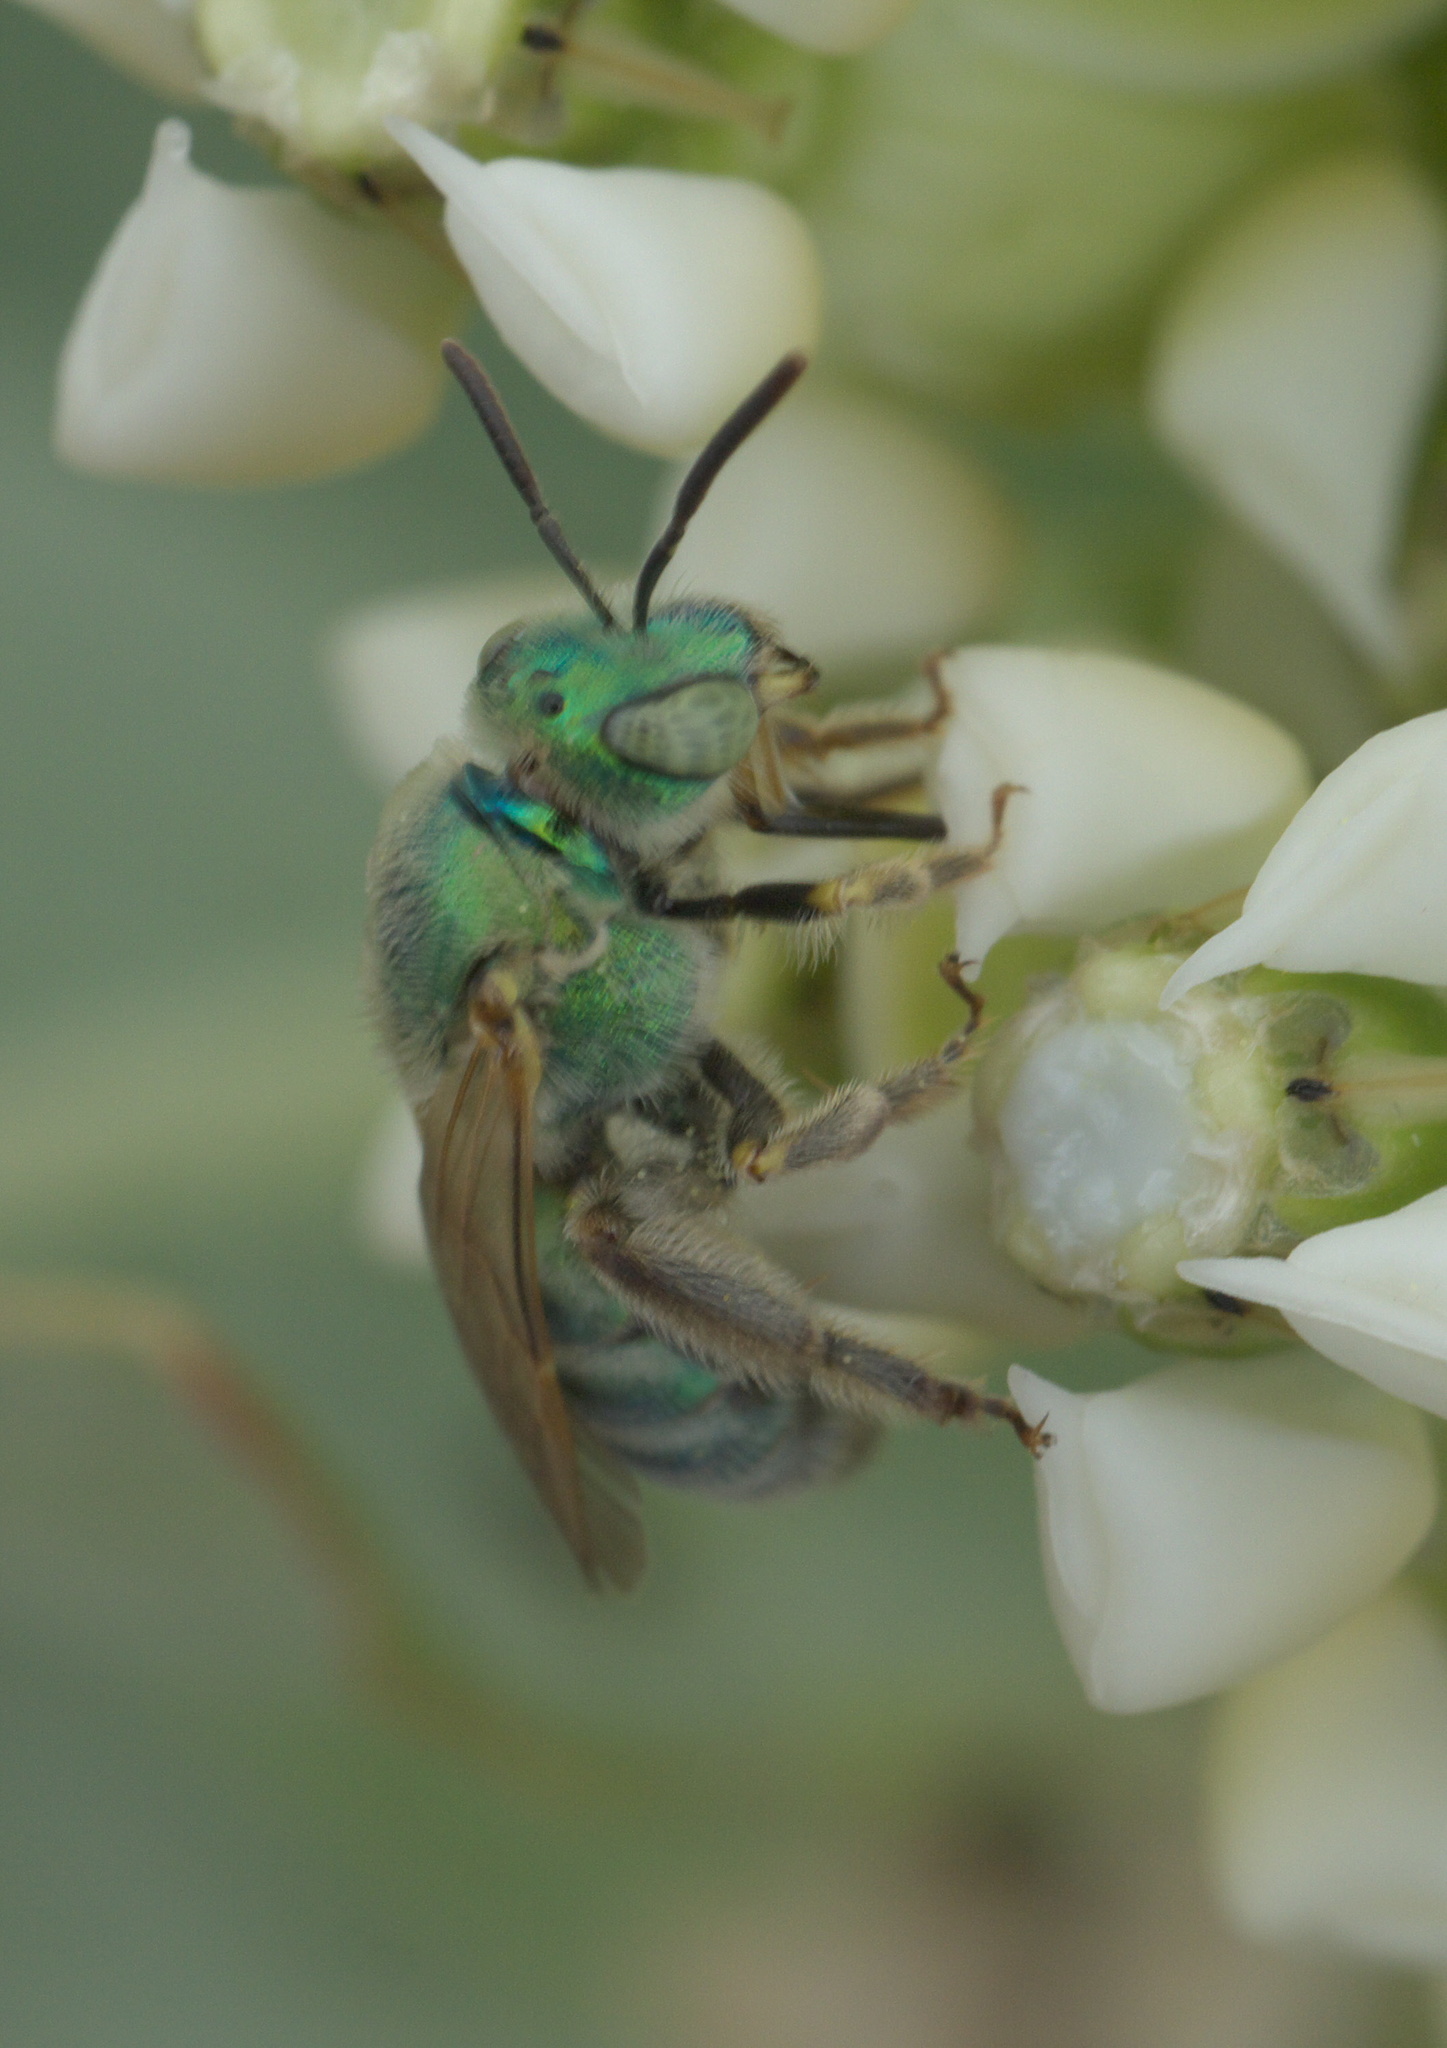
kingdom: Animalia
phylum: Arthropoda
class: Insecta
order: Hymenoptera
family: Halictidae
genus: Agapostemon
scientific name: Agapostemon
